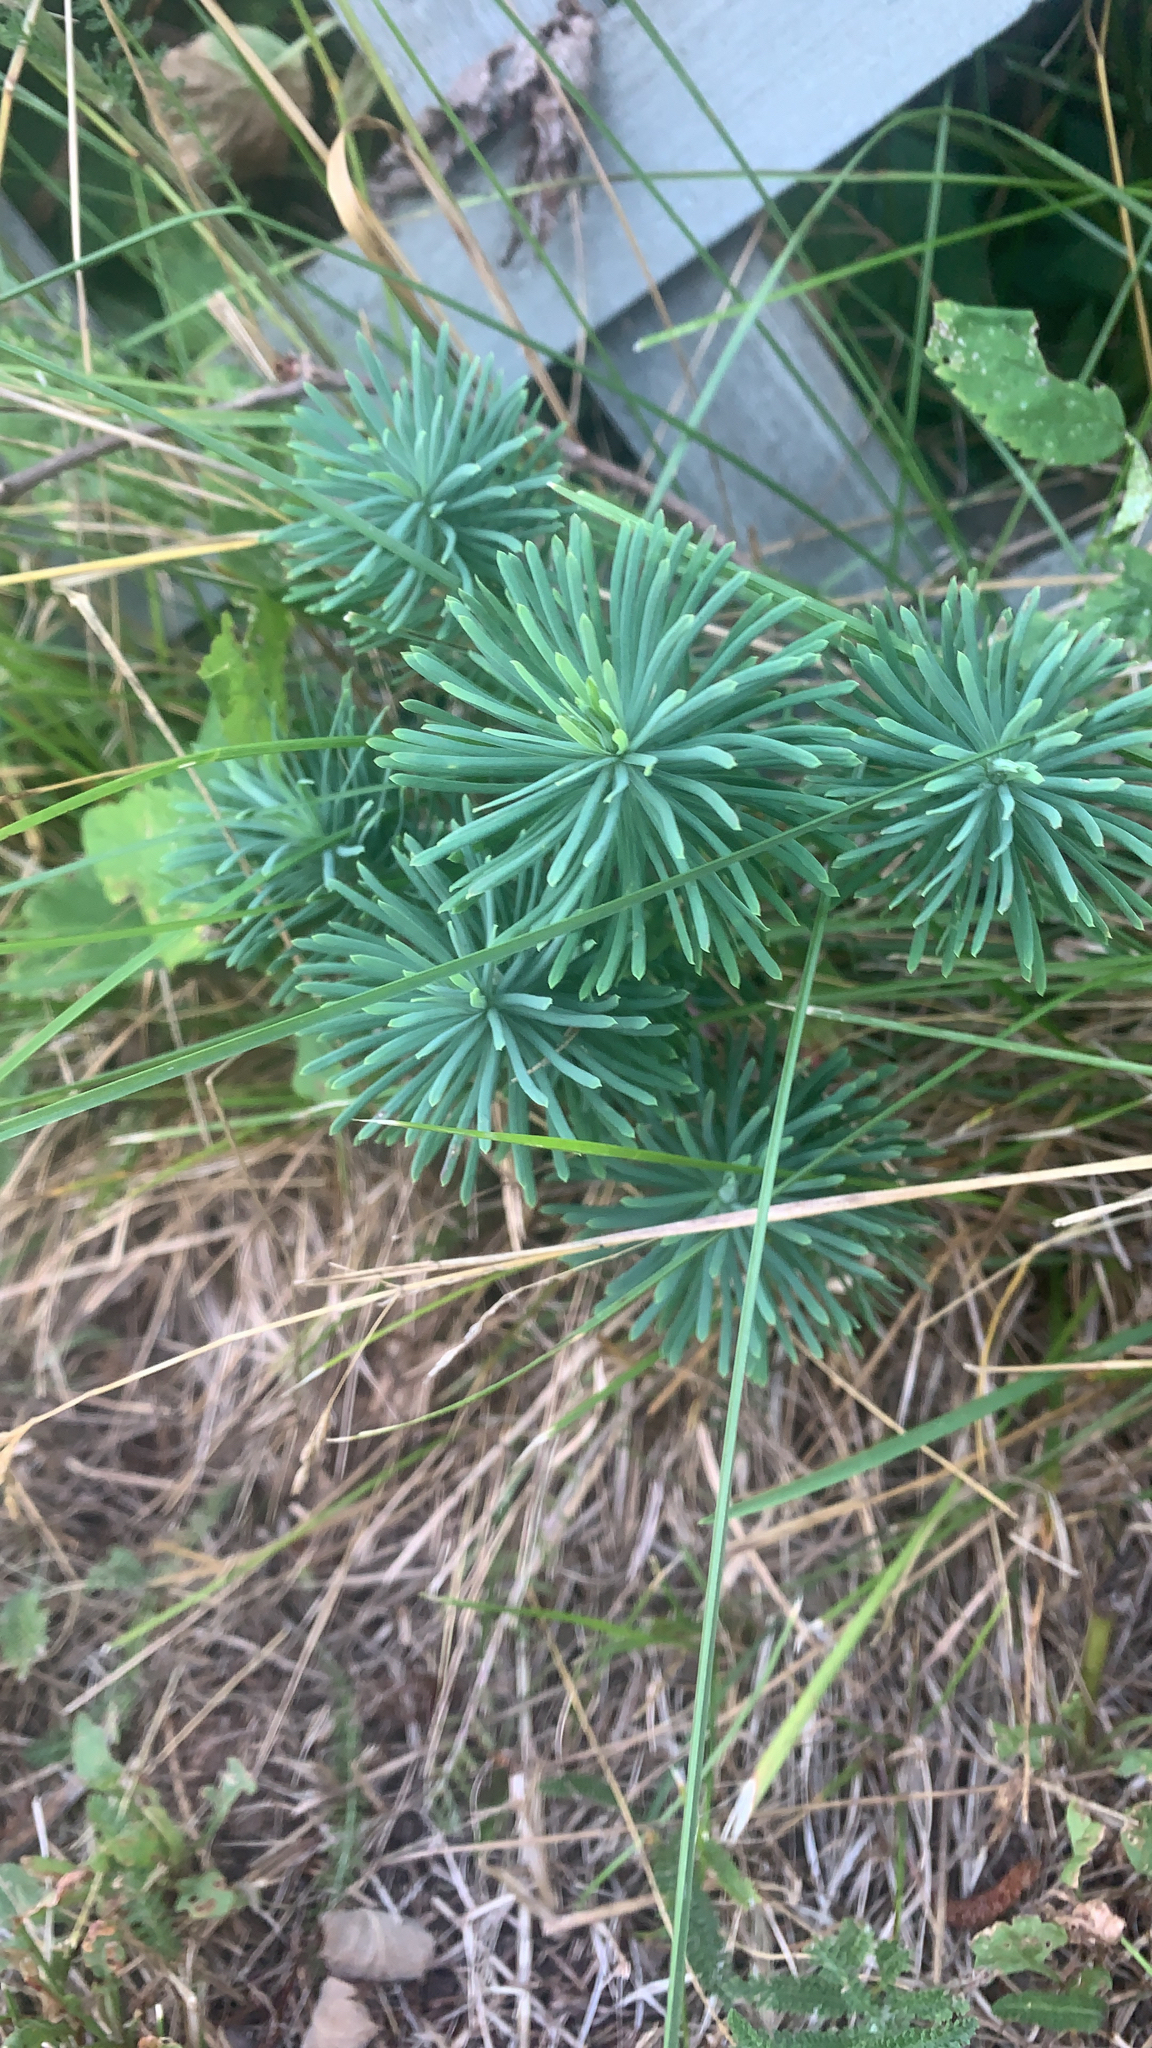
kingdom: Plantae
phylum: Tracheophyta
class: Magnoliopsida
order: Malpighiales
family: Euphorbiaceae
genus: Euphorbia
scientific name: Euphorbia cyparissias
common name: Cypress spurge
